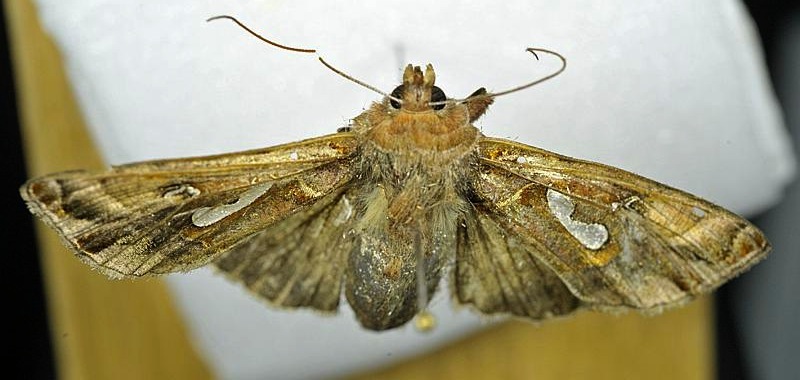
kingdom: Animalia
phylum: Arthropoda
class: Insecta
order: Lepidoptera
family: Noctuidae
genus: Megalographa
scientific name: Megalographa biloba
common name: Cutworm
